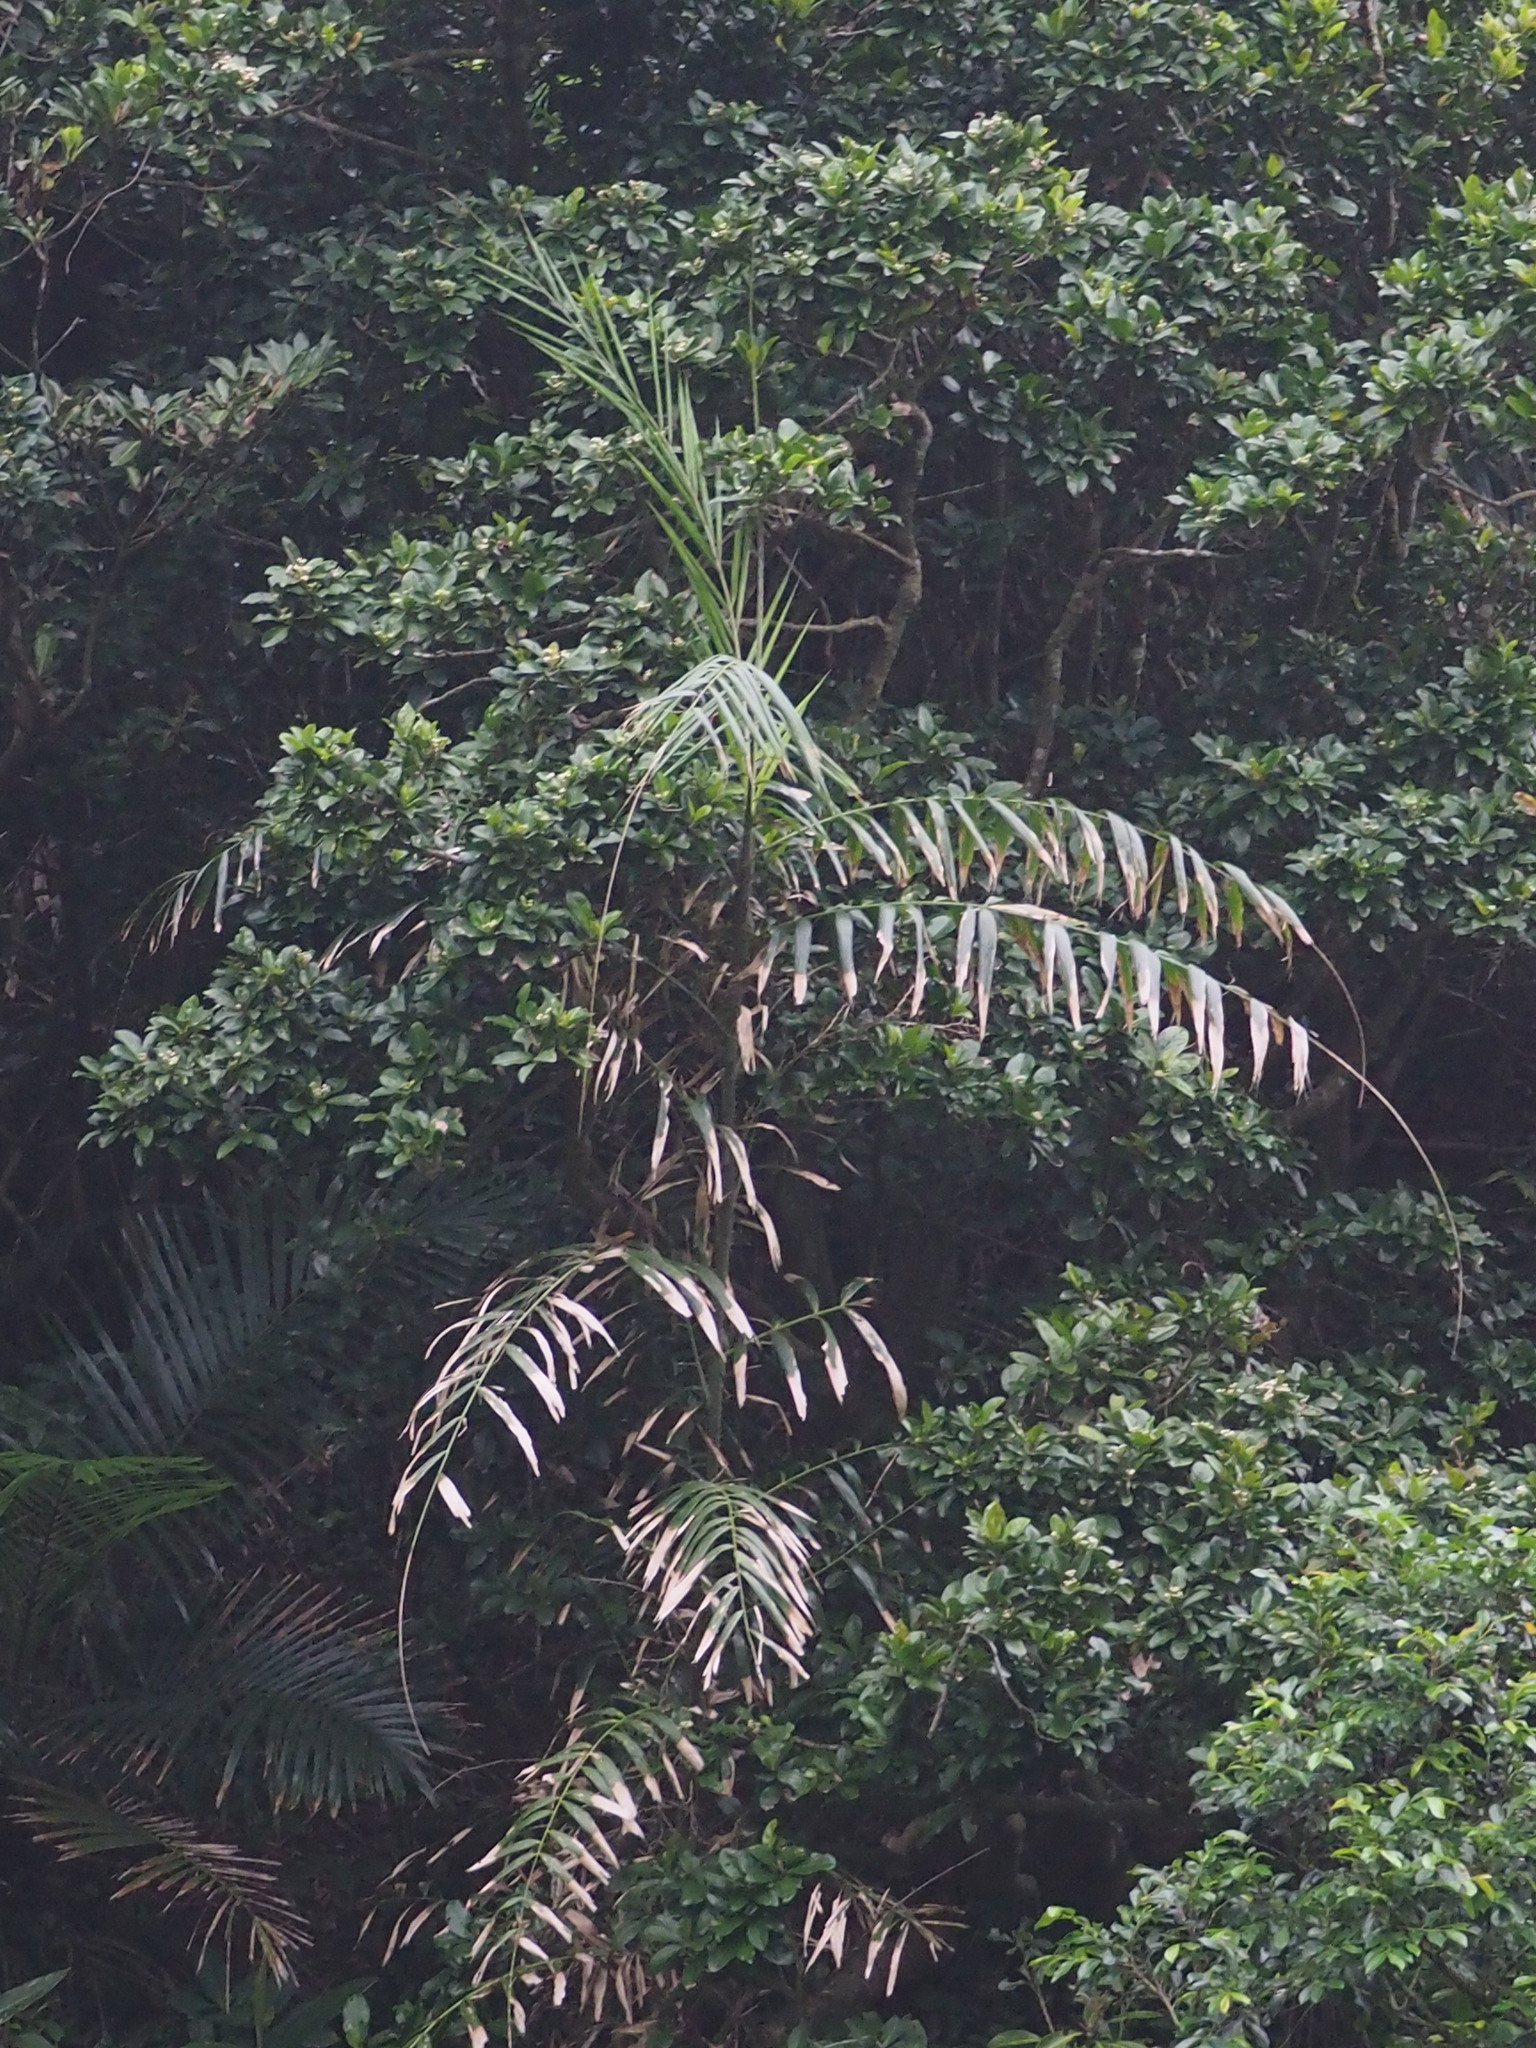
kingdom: Plantae
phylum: Tracheophyta
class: Liliopsida
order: Arecales
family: Arecaceae
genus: Calamus
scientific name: Calamus formosanus
